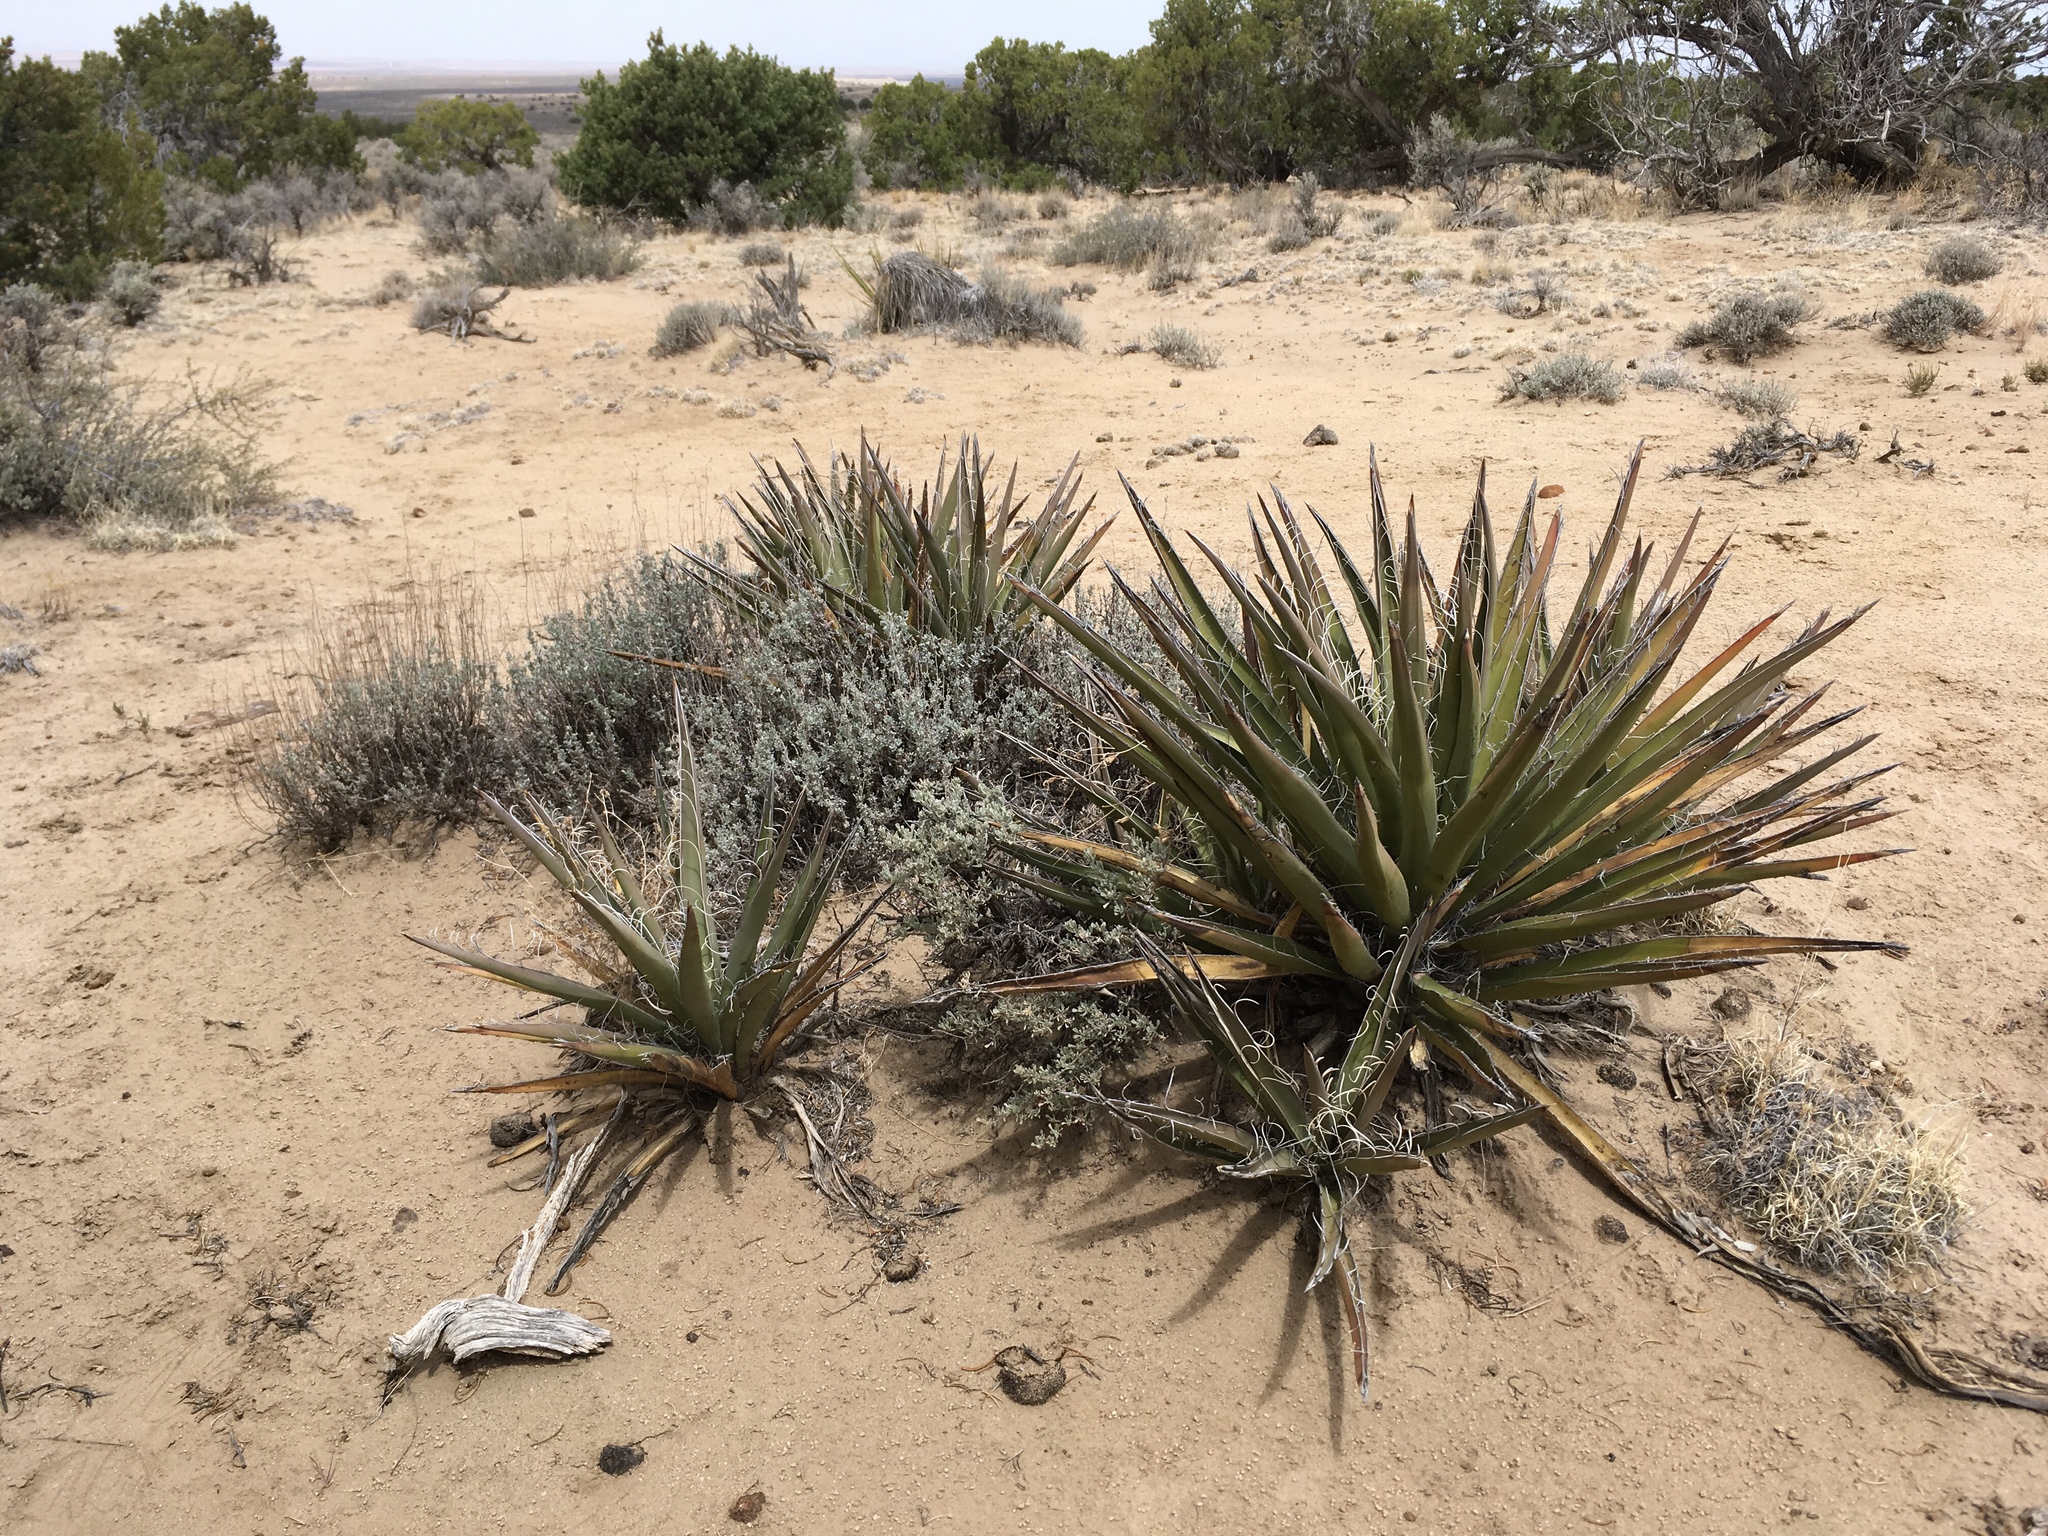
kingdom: Plantae
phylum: Tracheophyta
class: Liliopsida
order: Asparagales
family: Asparagaceae
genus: Yucca
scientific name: Yucca baccata
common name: Banana yucca
